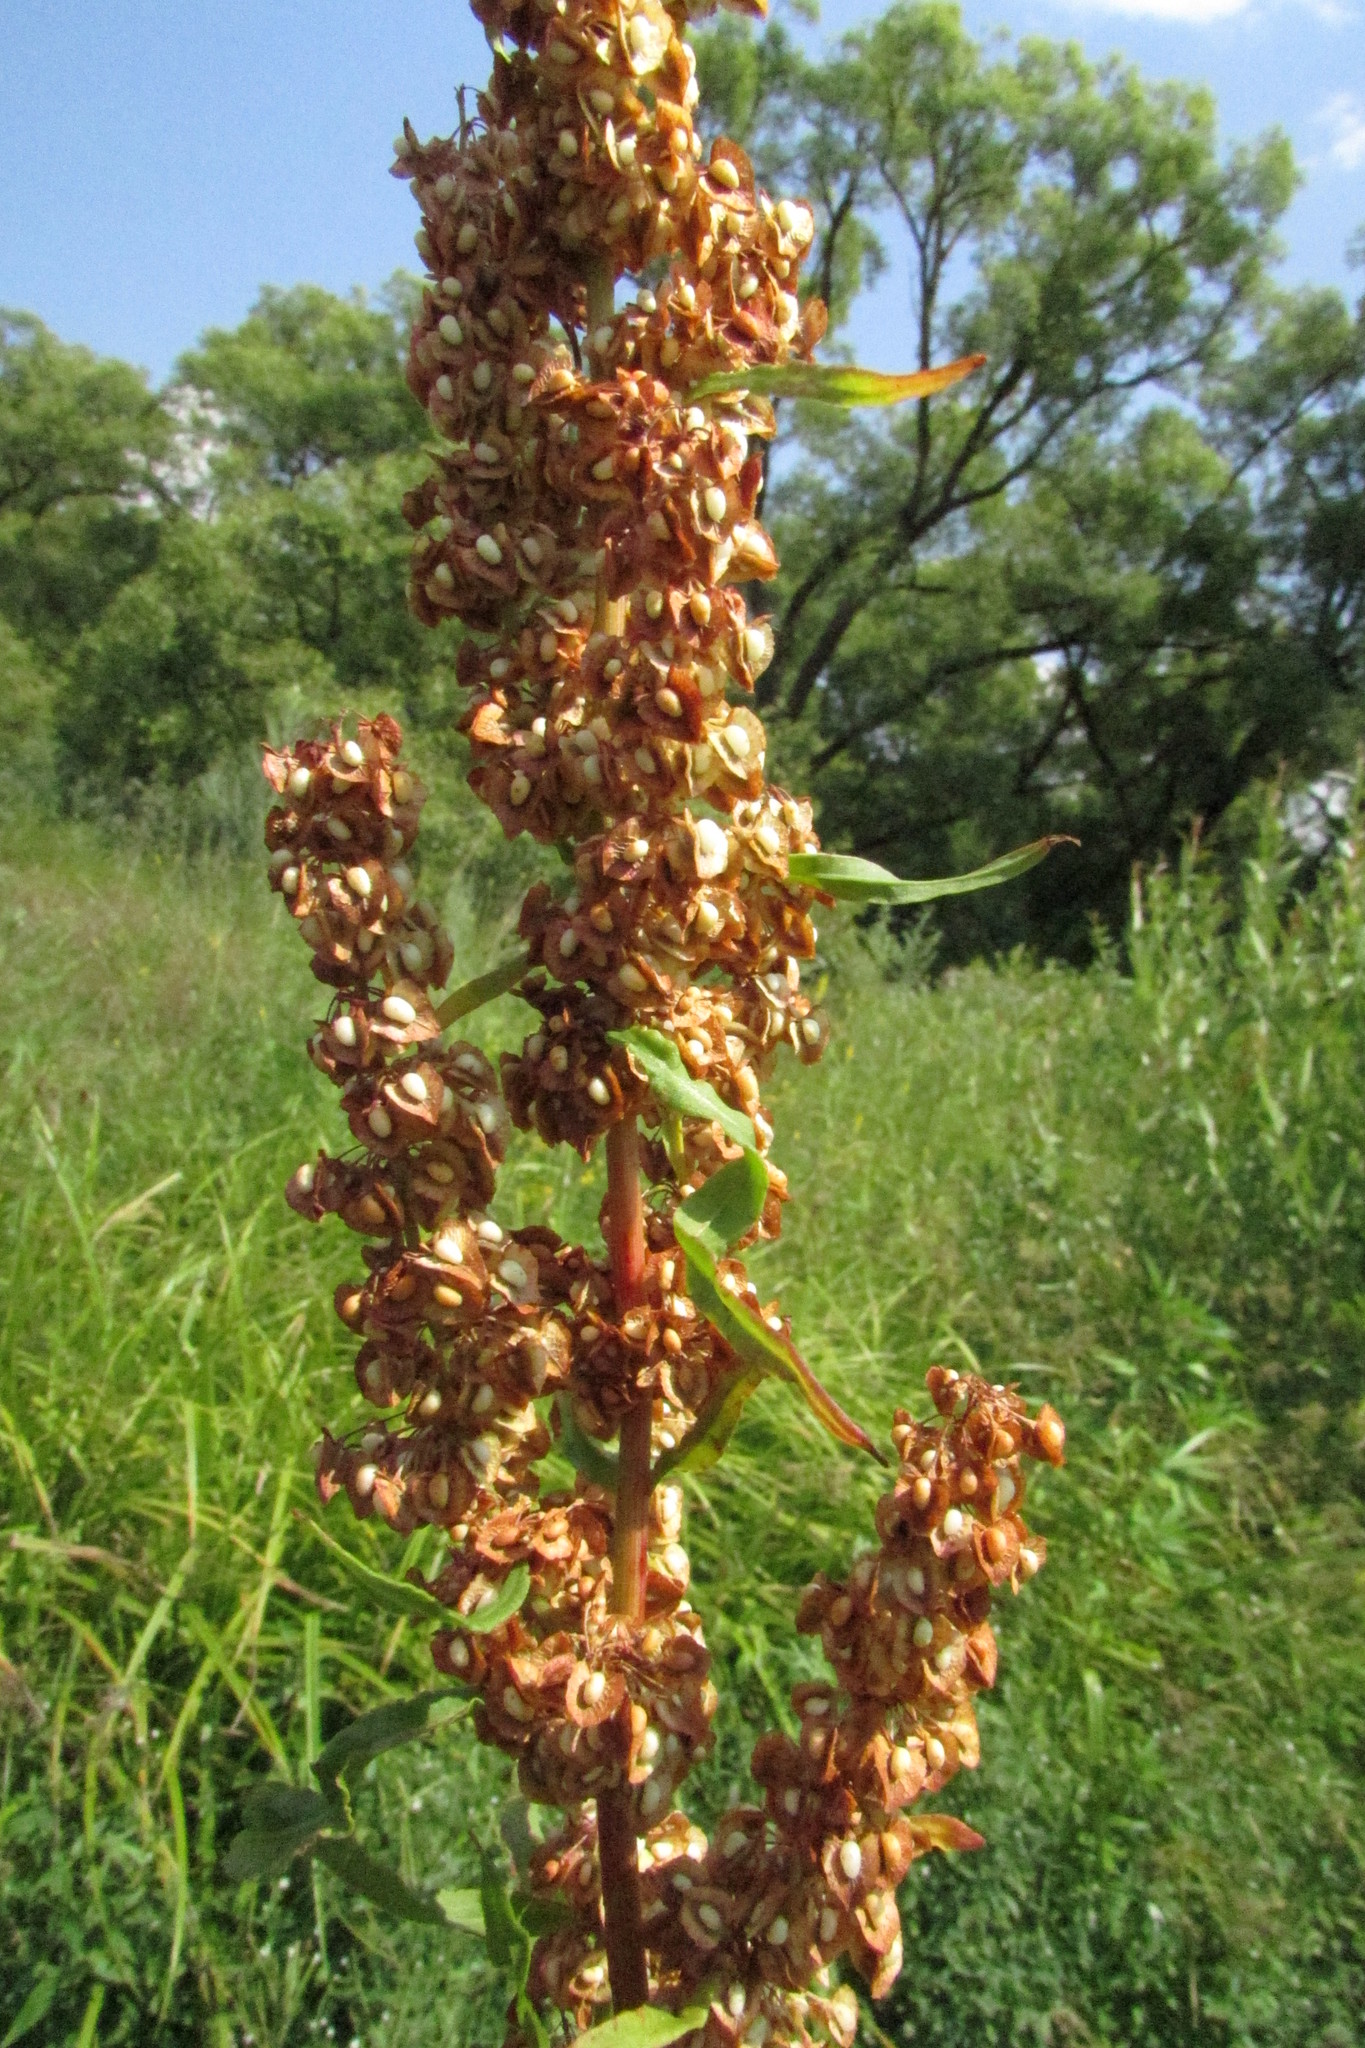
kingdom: Plantae
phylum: Tracheophyta
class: Magnoliopsida
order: Caryophyllales
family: Polygonaceae
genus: Rumex
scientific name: Rumex crispus
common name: Curled dock
